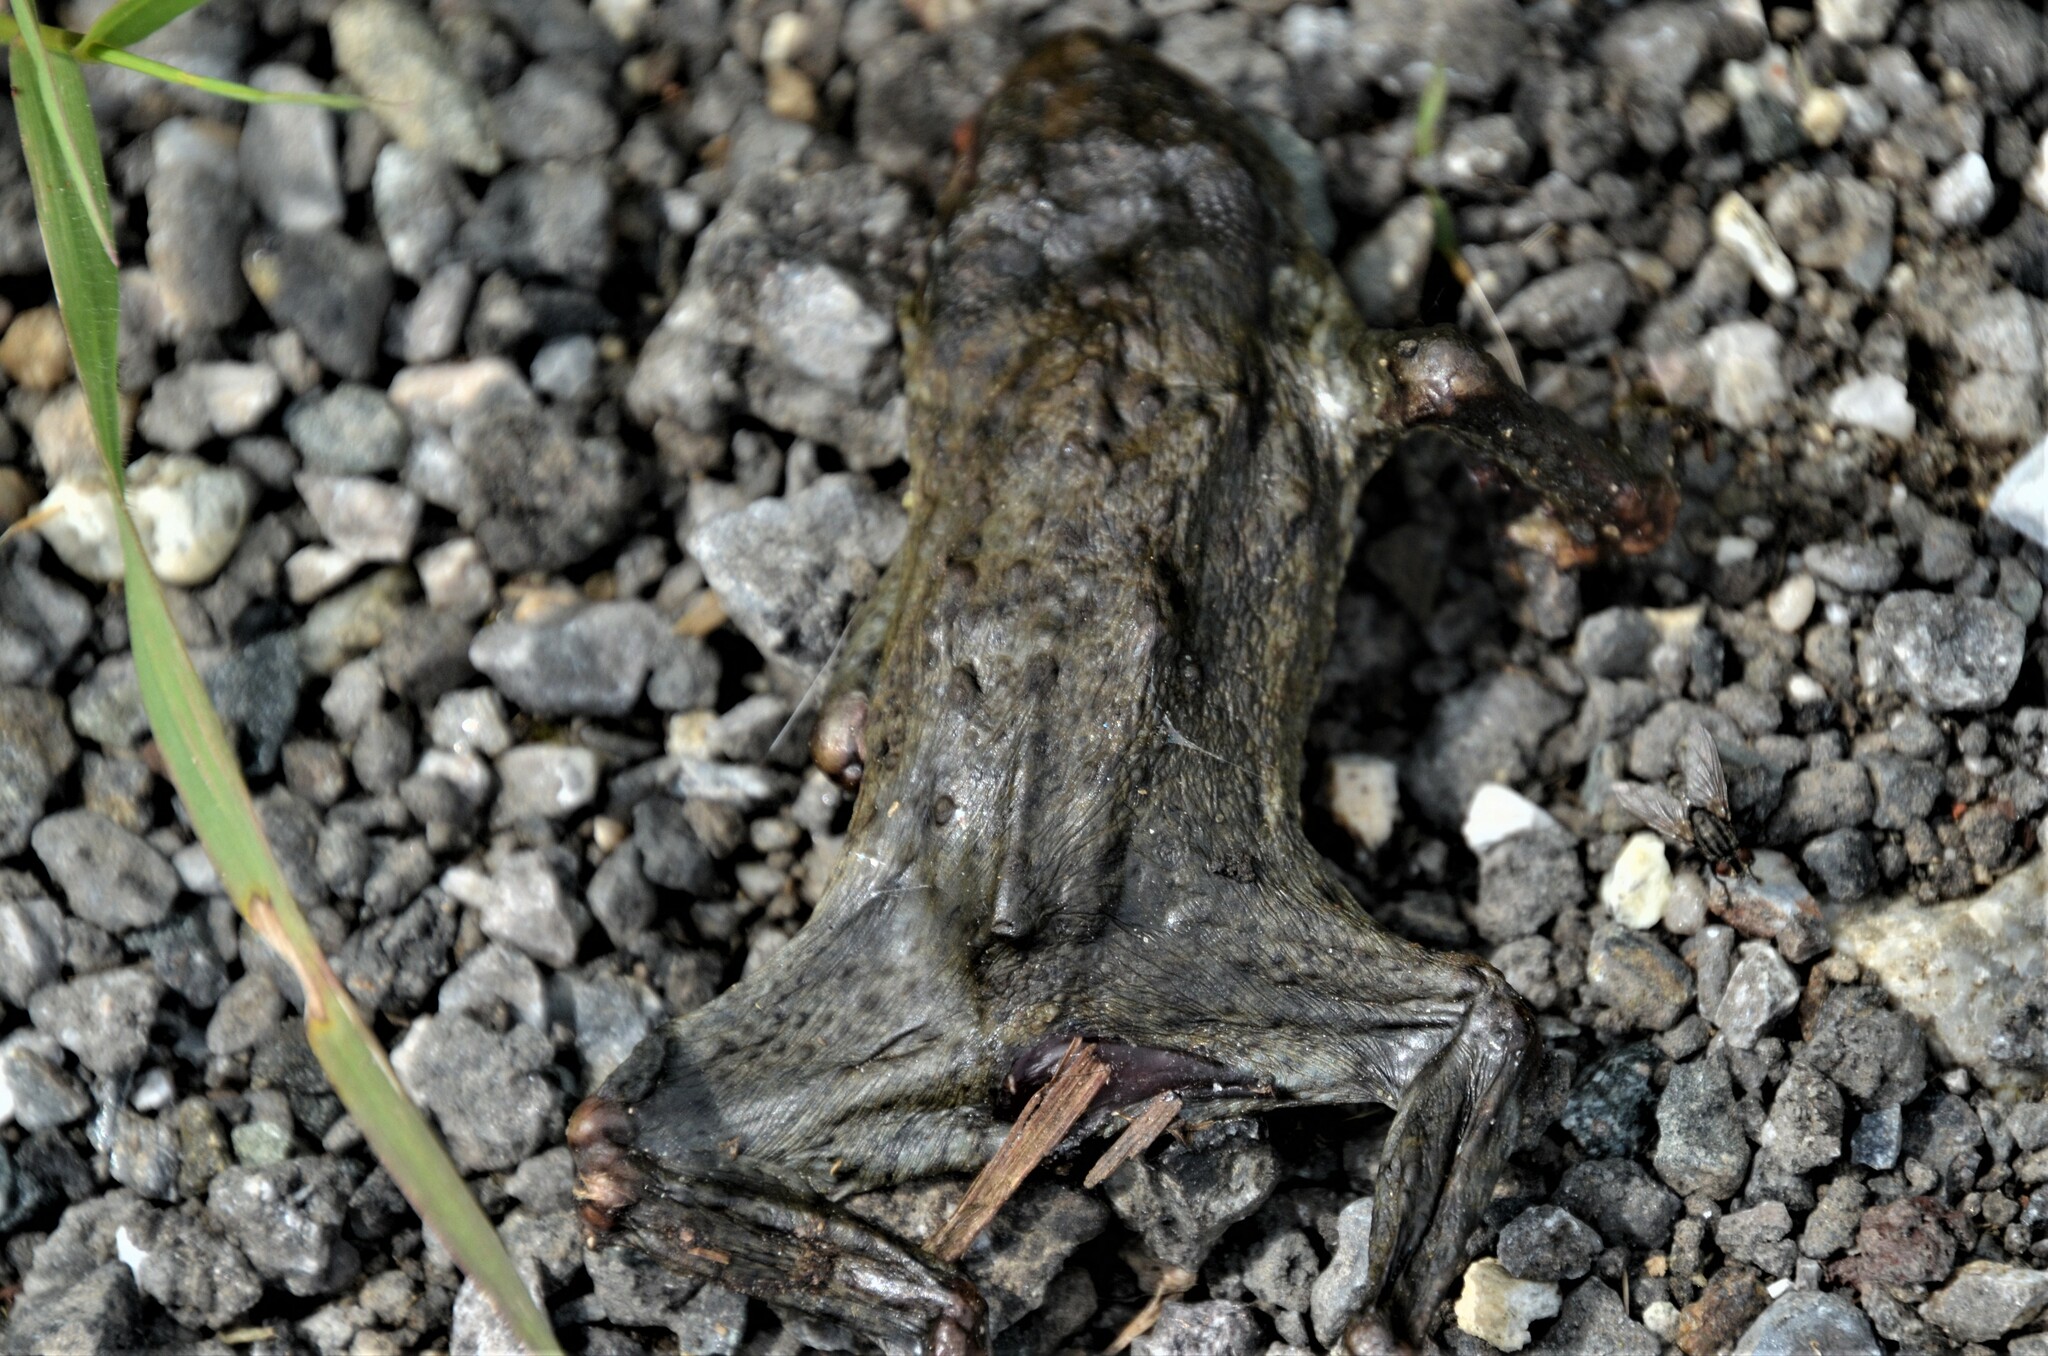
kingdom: Animalia
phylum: Chordata
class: Amphibia
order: Anura
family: Bufonidae
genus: Bufo
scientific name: Bufo bufo
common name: Common toad
